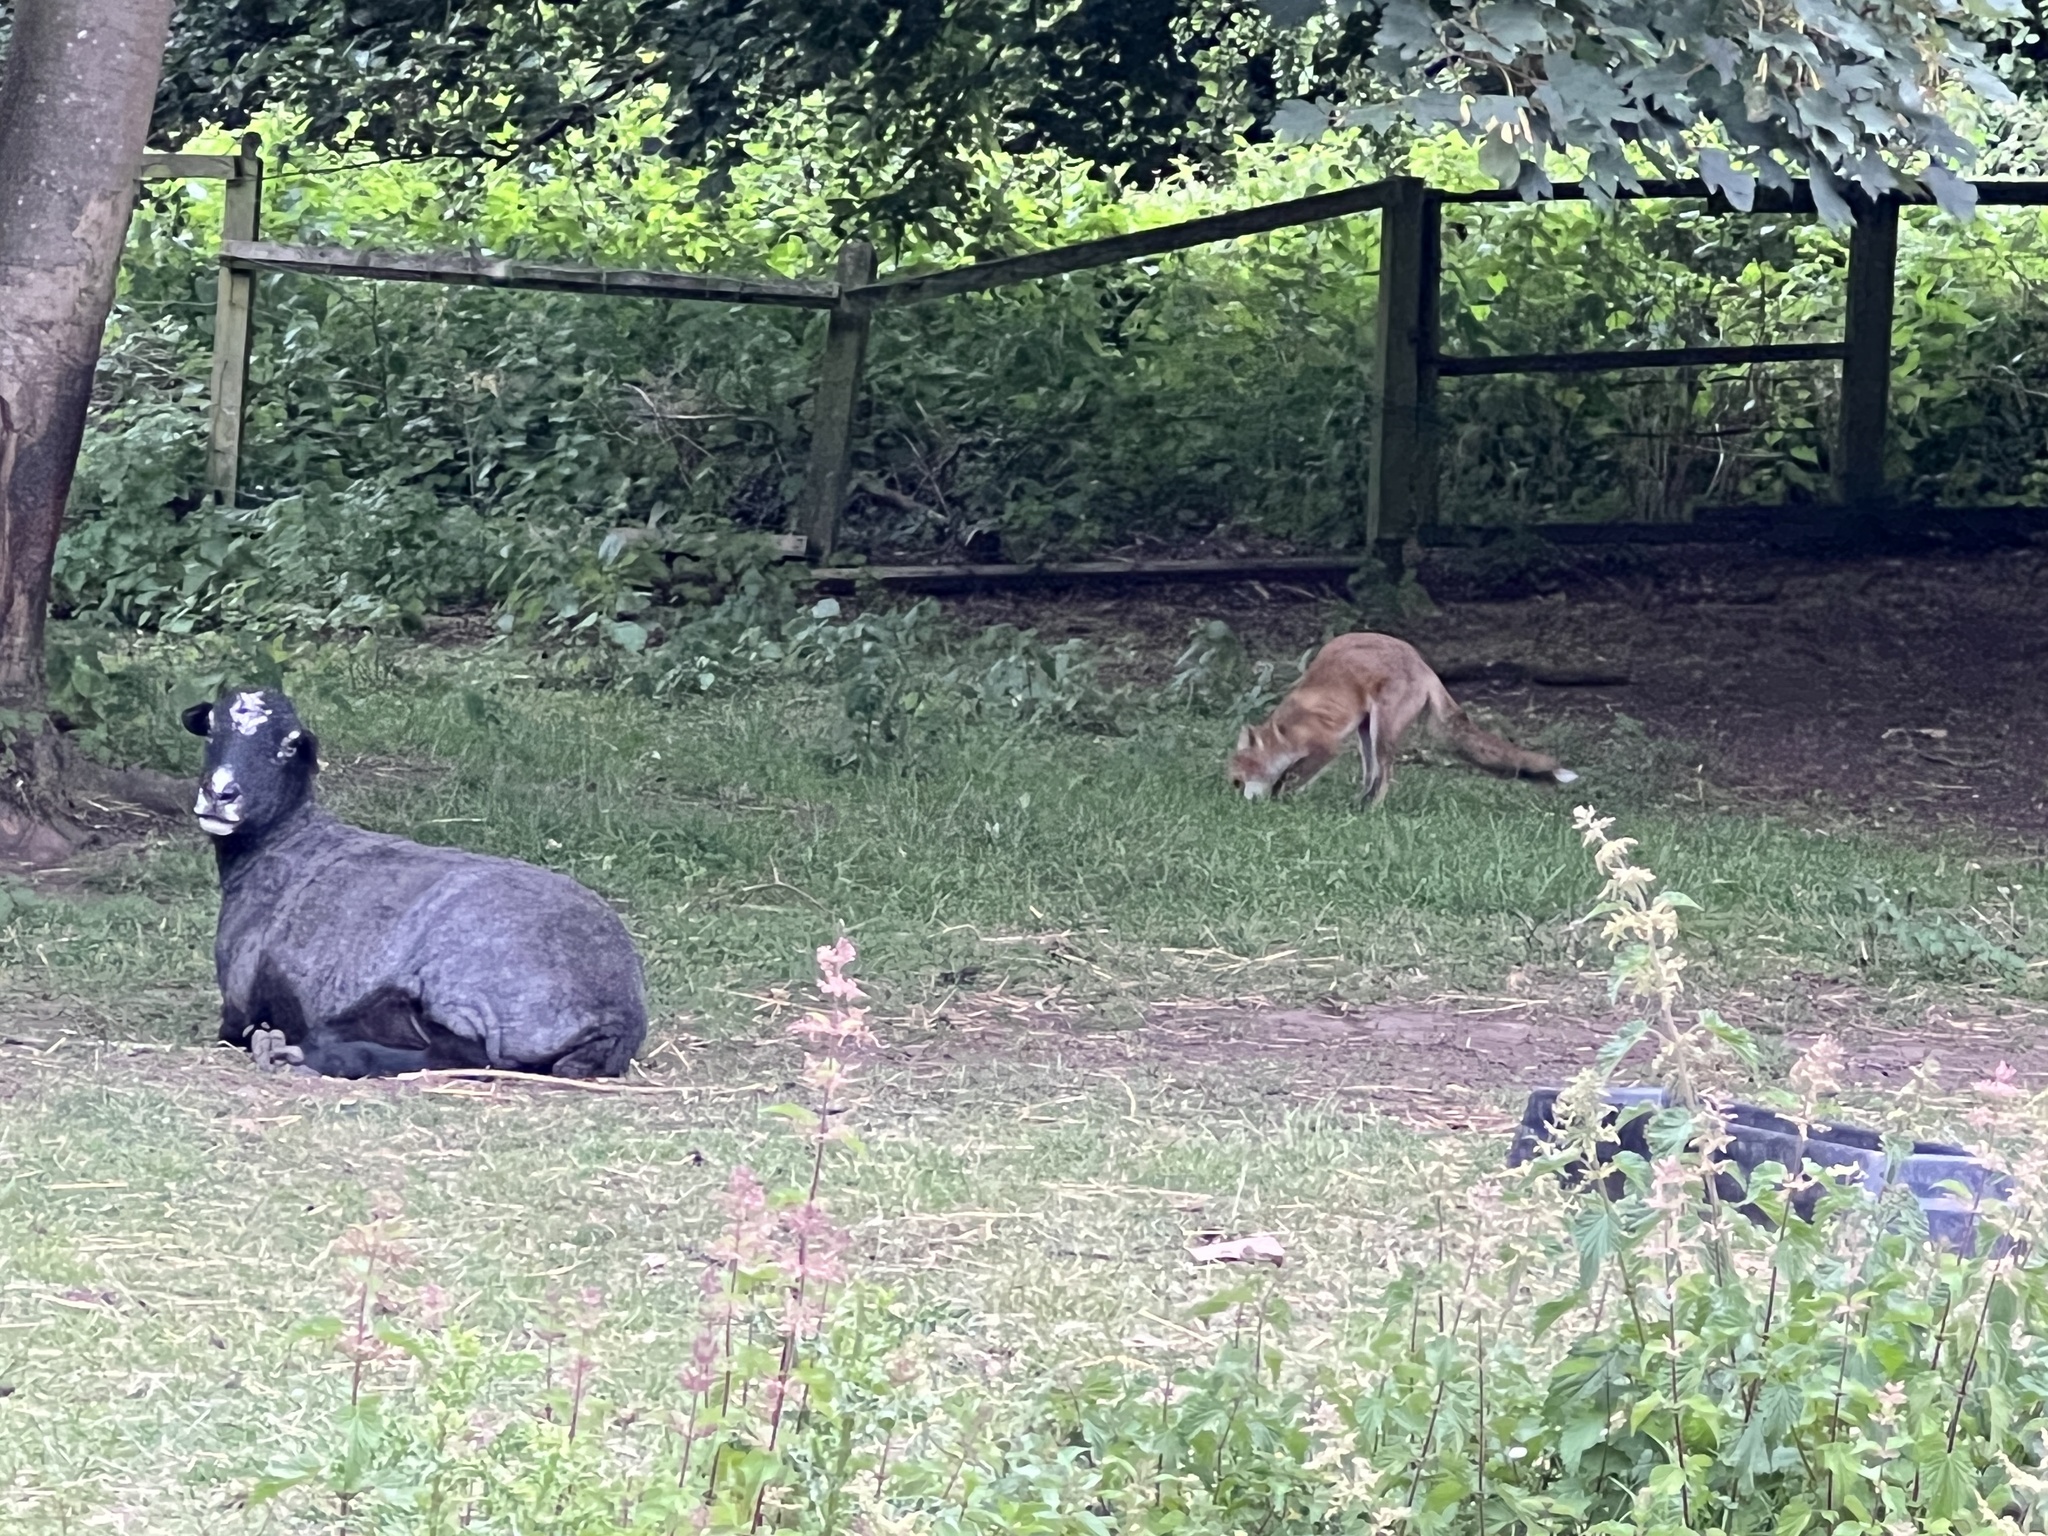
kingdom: Animalia
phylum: Chordata
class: Mammalia
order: Carnivora
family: Canidae
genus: Vulpes
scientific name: Vulpes vulpes
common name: Red fox
